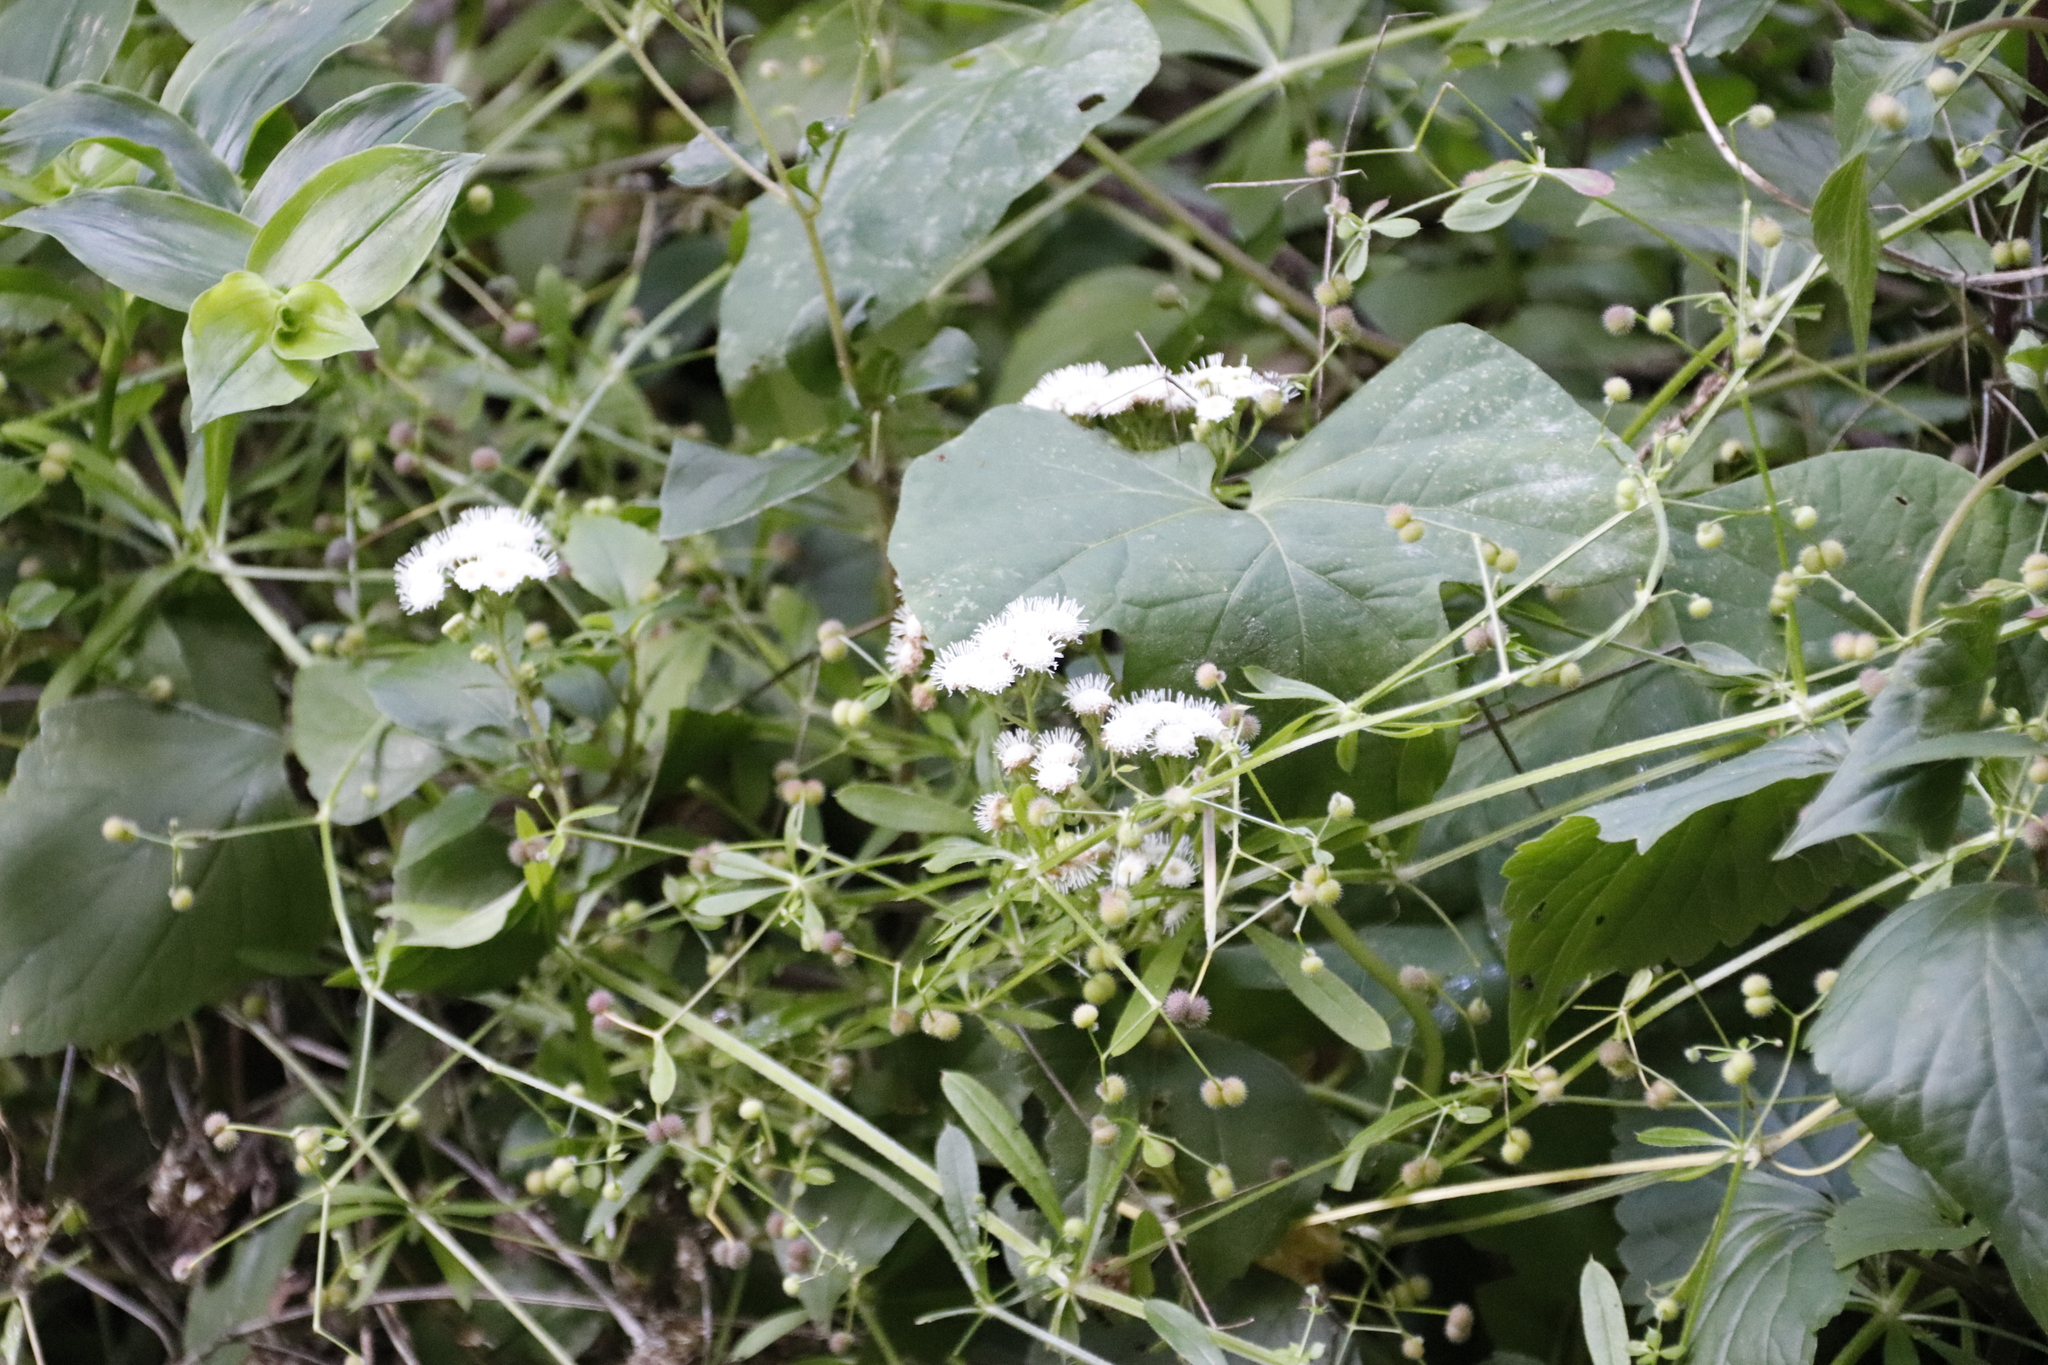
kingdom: Plantae
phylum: Tracheophyta
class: Magnoliopsida
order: Asterales
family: Asteraceae
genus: Ageratina
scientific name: Ageratina adenophora
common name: Sticky snakeroot
